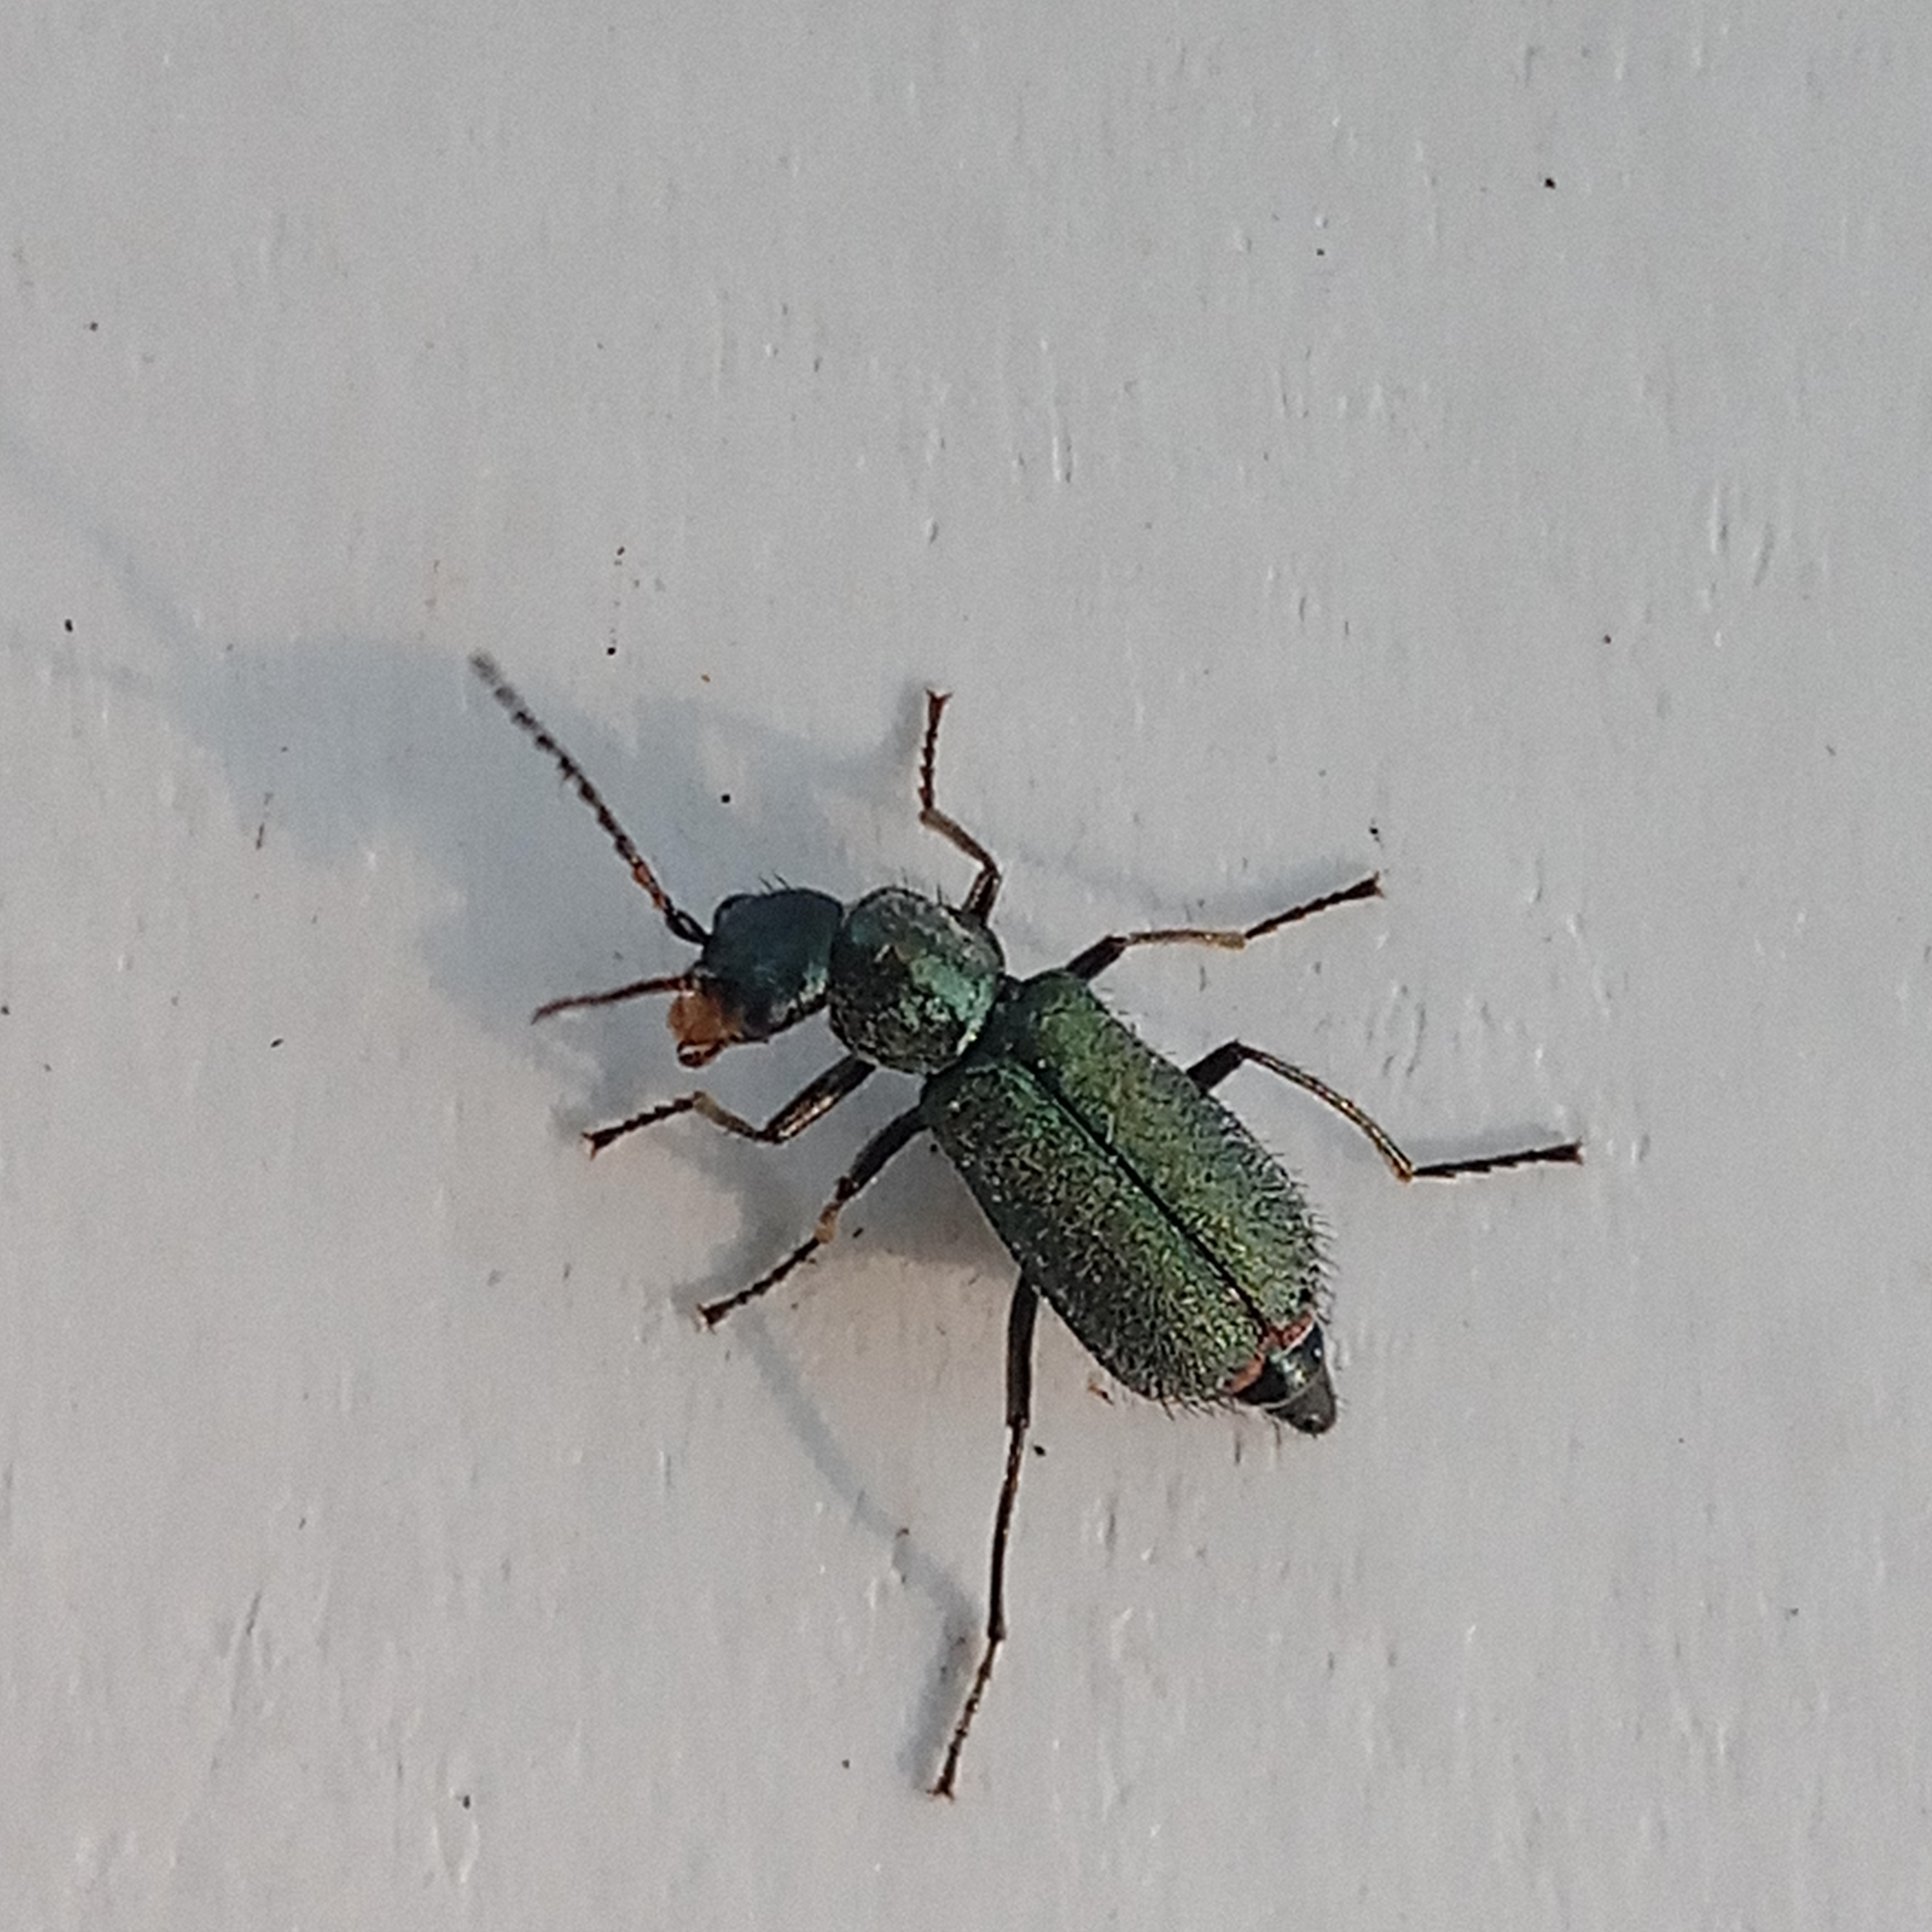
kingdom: Animalia
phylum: Arthropoda
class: Insecta
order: Coleoptera
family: Malachiidae
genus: Cordylepherus
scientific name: Cordylepherus viridis
